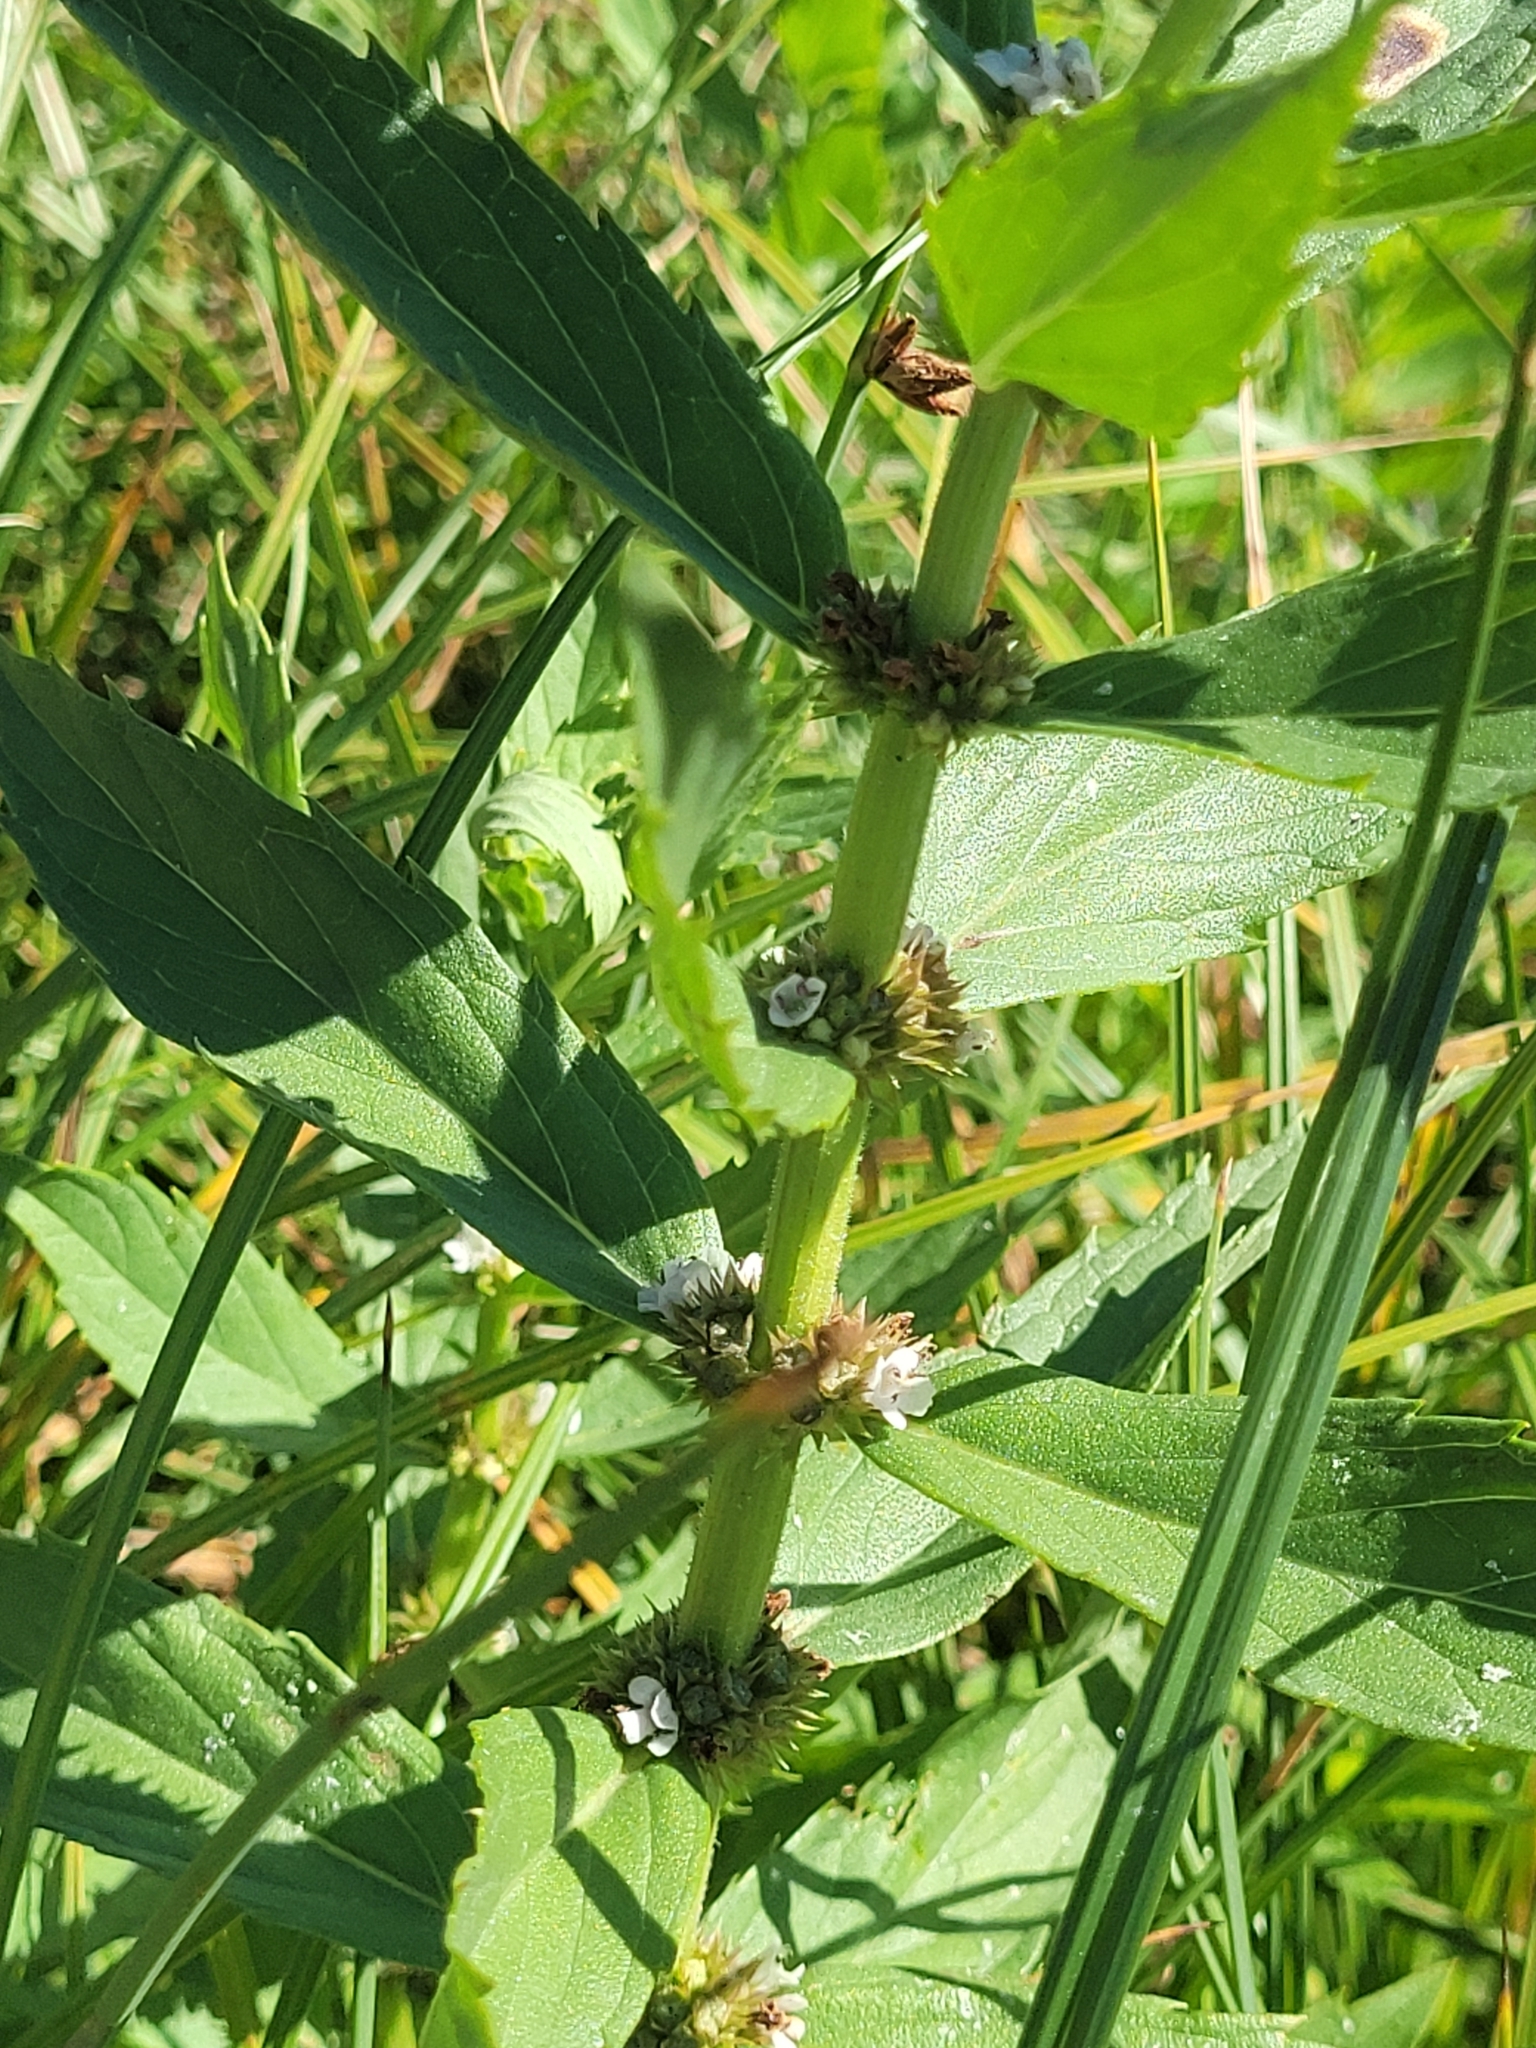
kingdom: Plantae
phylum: Tracheophyta
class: Magnoliopsida
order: Lamiales
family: Lamiaceae
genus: Lycopus
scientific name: Lycopus asper
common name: Rough water-horehound
